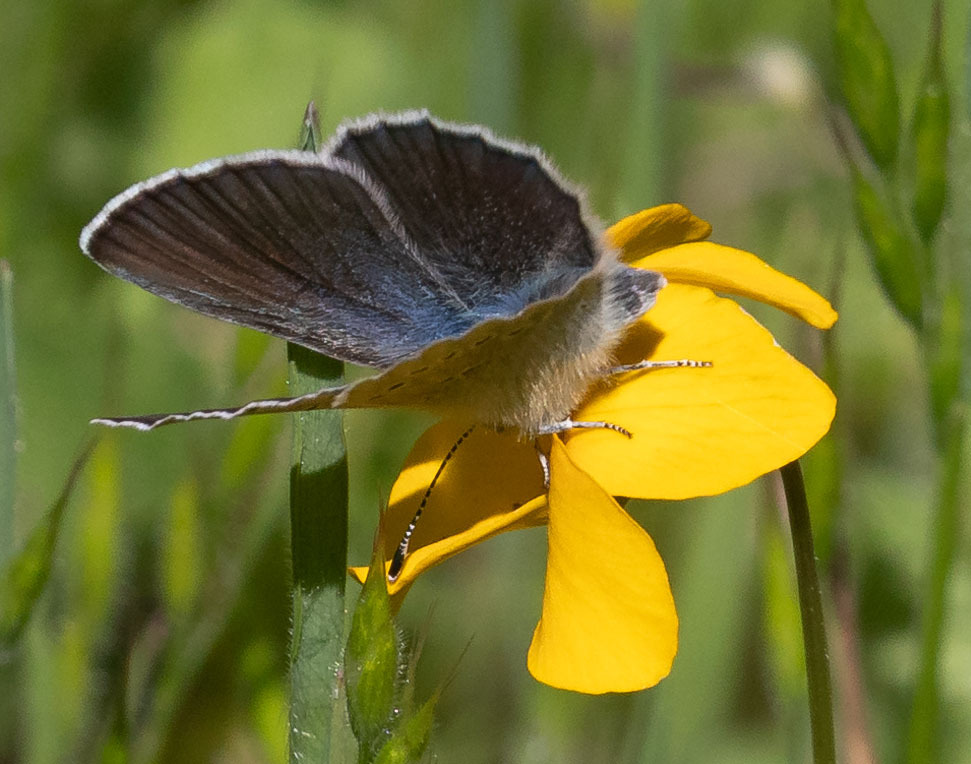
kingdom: Animalia
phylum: Arthropoda
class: Insecta
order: Lepidoptera
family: Lycaenidae
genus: Glaucopsyche
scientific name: Glaucopsyche lygdamus
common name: Silvery blue
